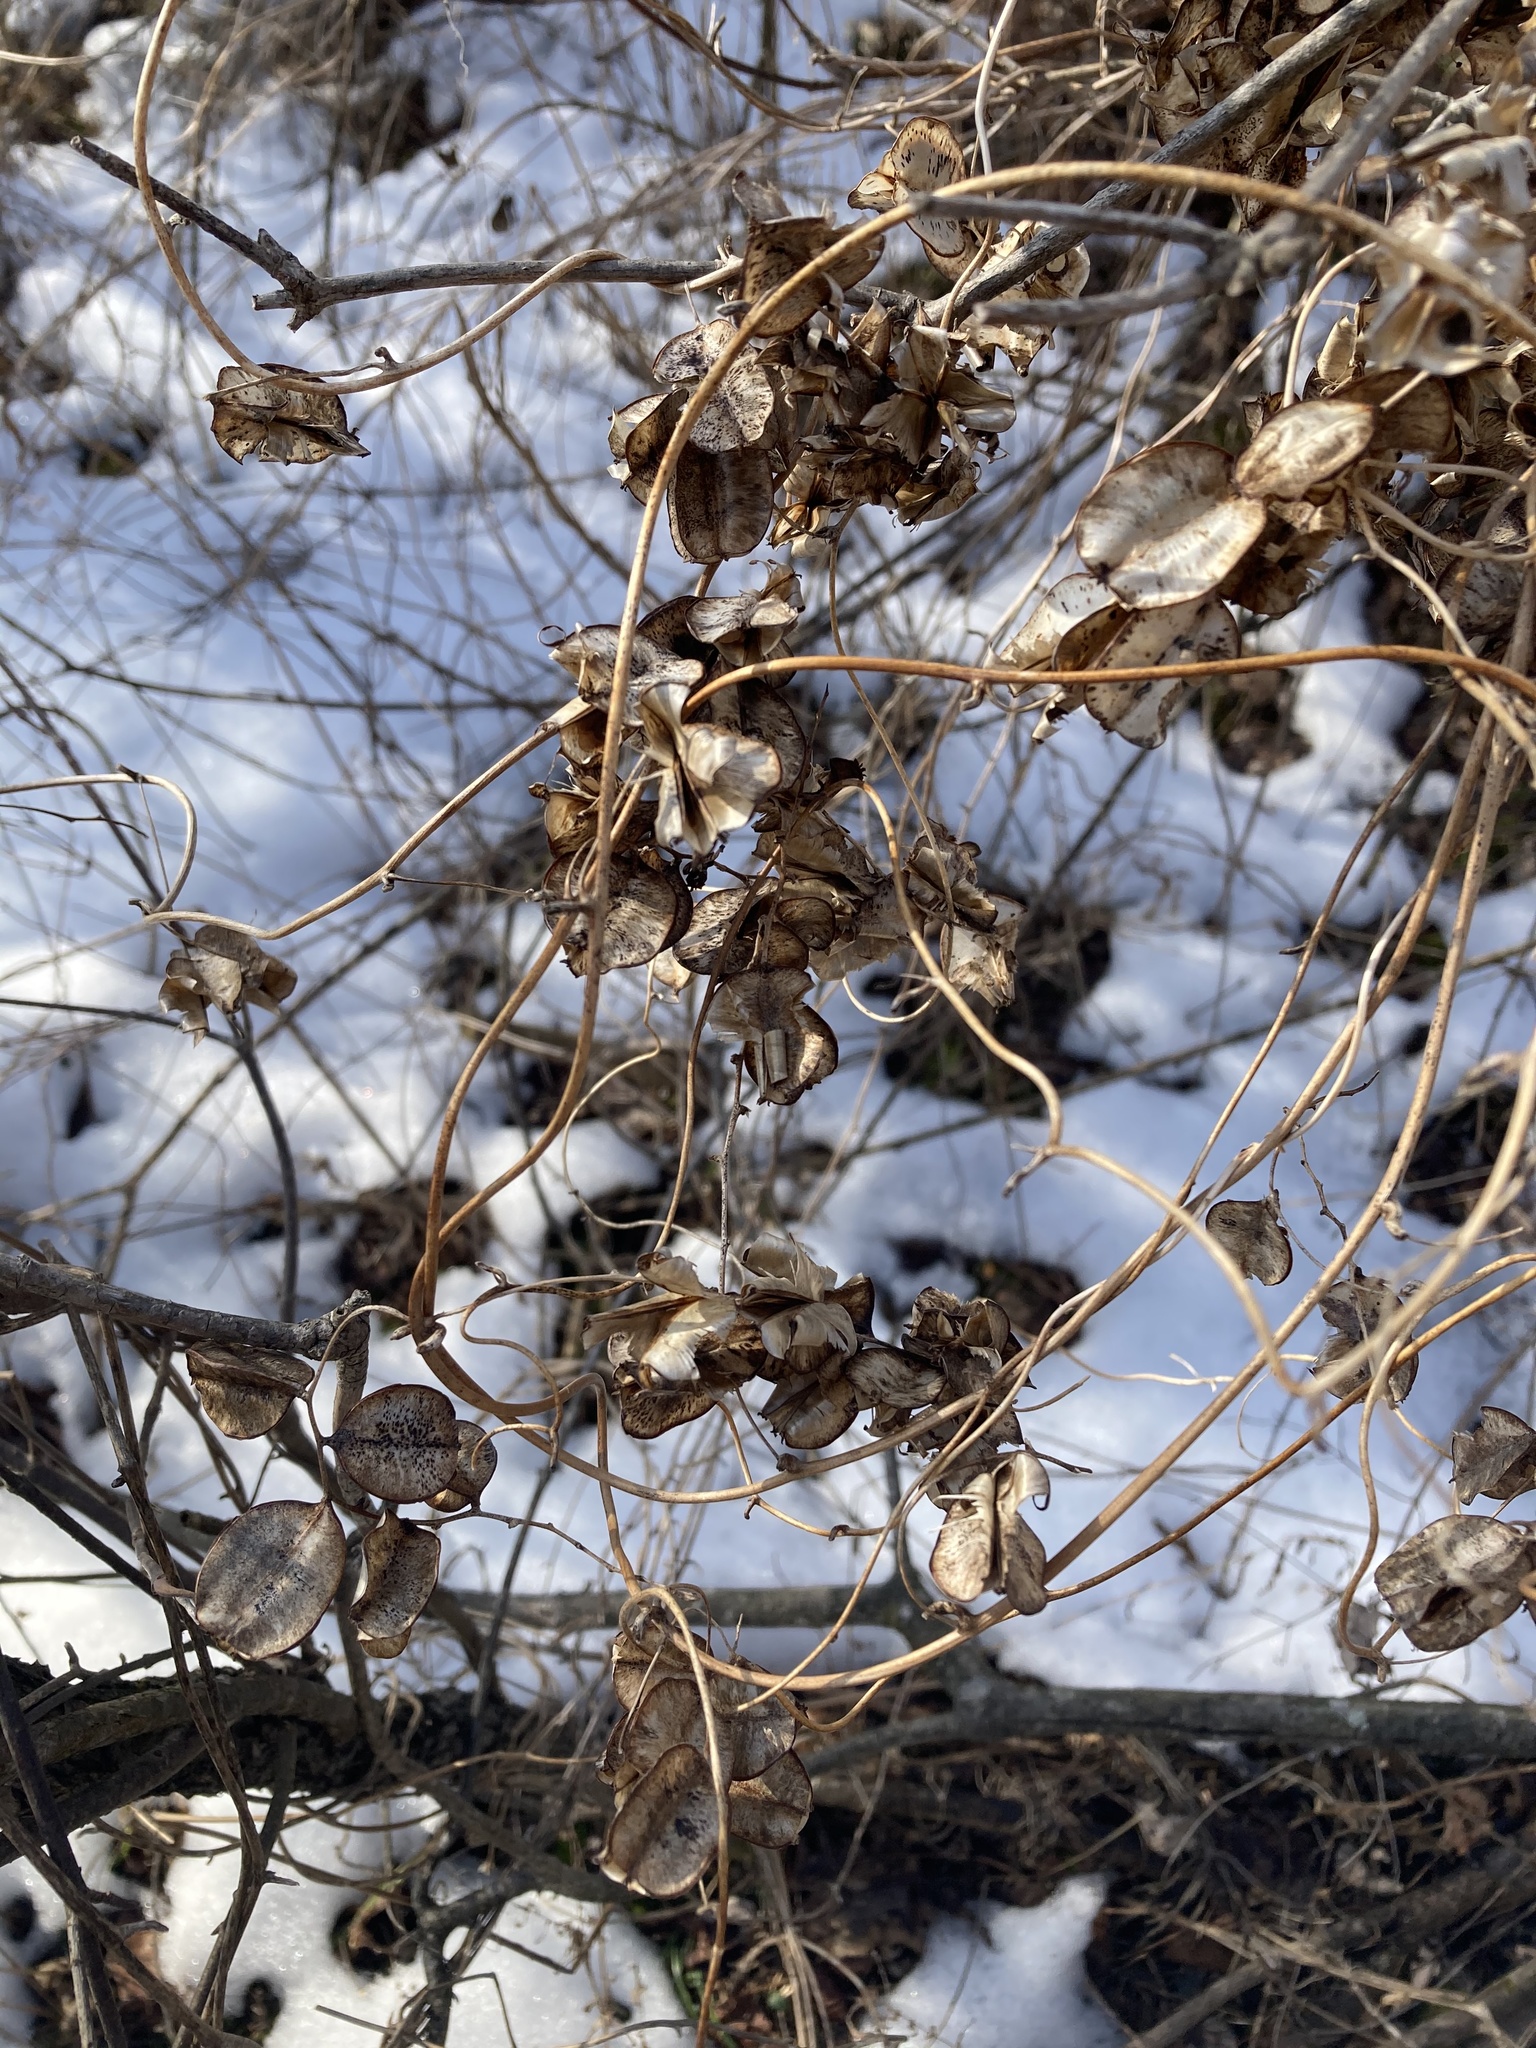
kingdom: Plantae
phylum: Tracheophyta
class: Liliopsida
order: Dioscoreales
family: Dioscoreaceae
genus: Dioscorea
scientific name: Dioscorea villosa
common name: Wild yam
